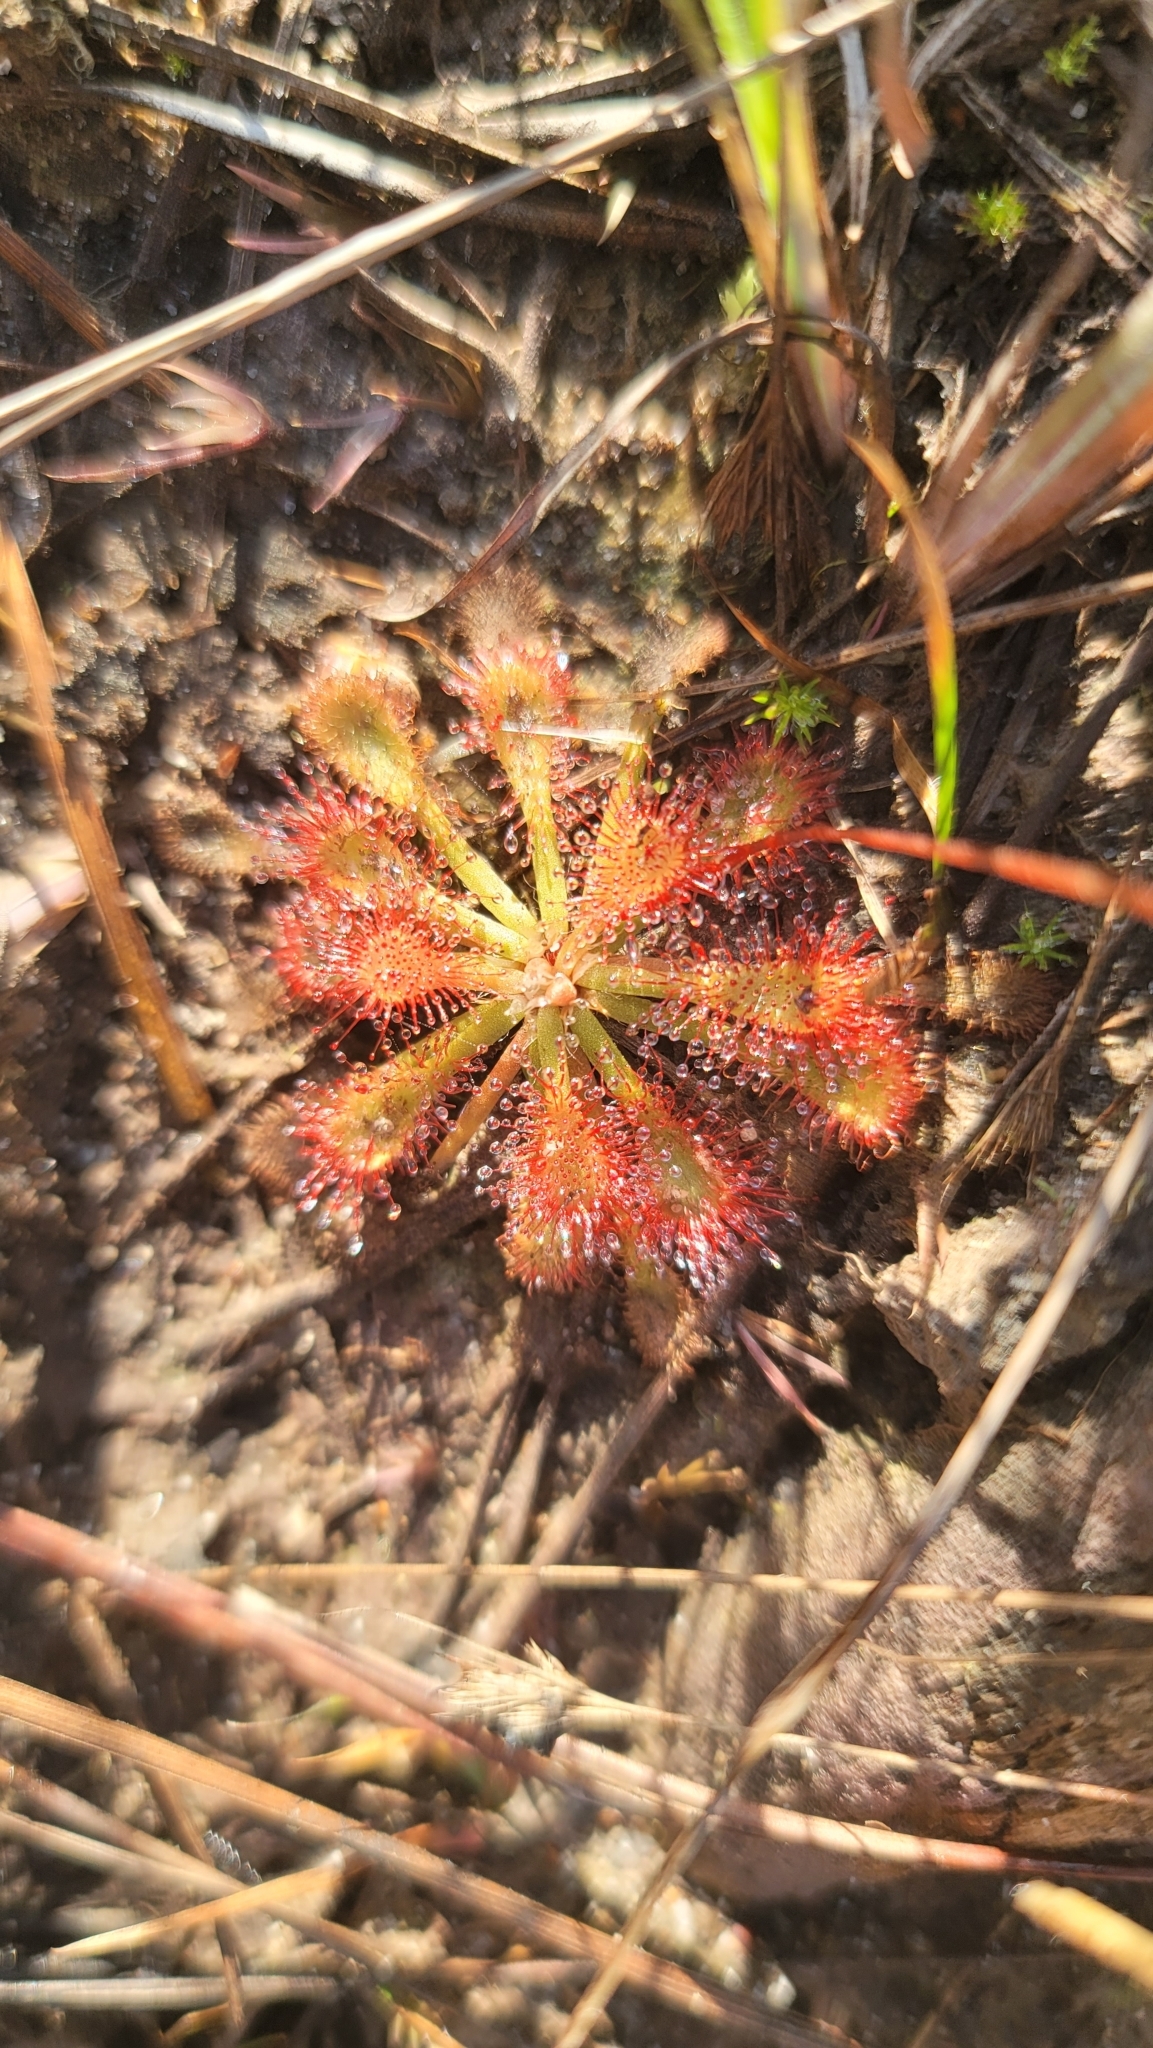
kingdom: Plantae
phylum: Tracheophyta
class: Magnoliopsida
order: Caryophyllales
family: Droseraceae
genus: Drosera
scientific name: Drosera capillaris
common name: Pink sundew
